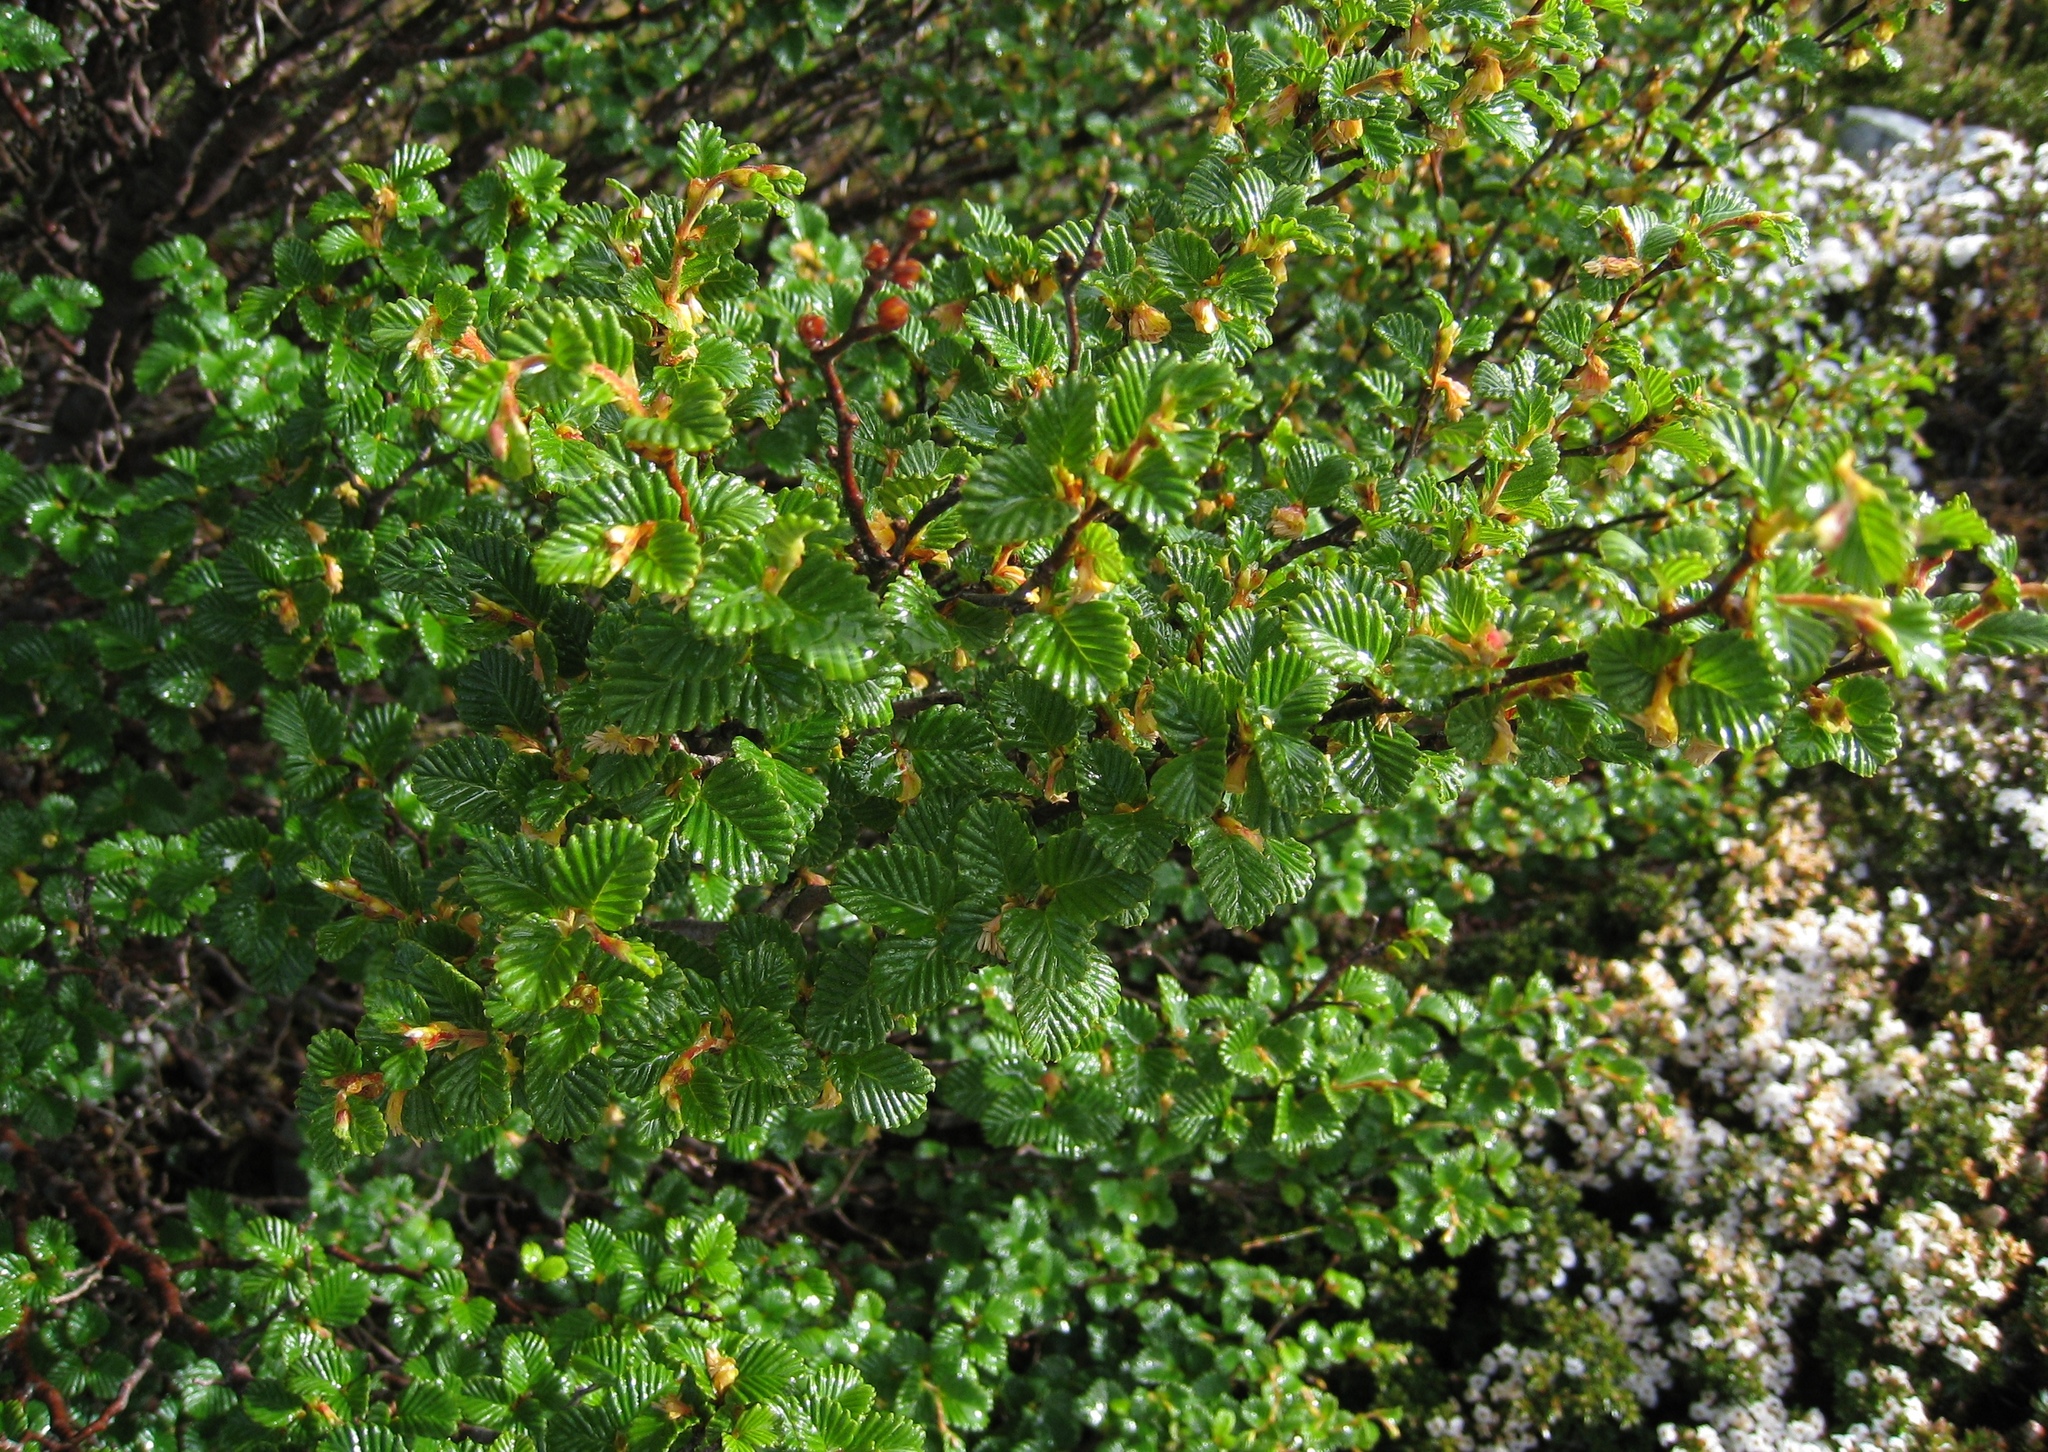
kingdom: Plantae
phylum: Tracheophyta
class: Magnoliopsida
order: Fagales
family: Nothofagaceae
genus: Nothofagus
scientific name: Nothofagus gunnii
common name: Tanglefoot
